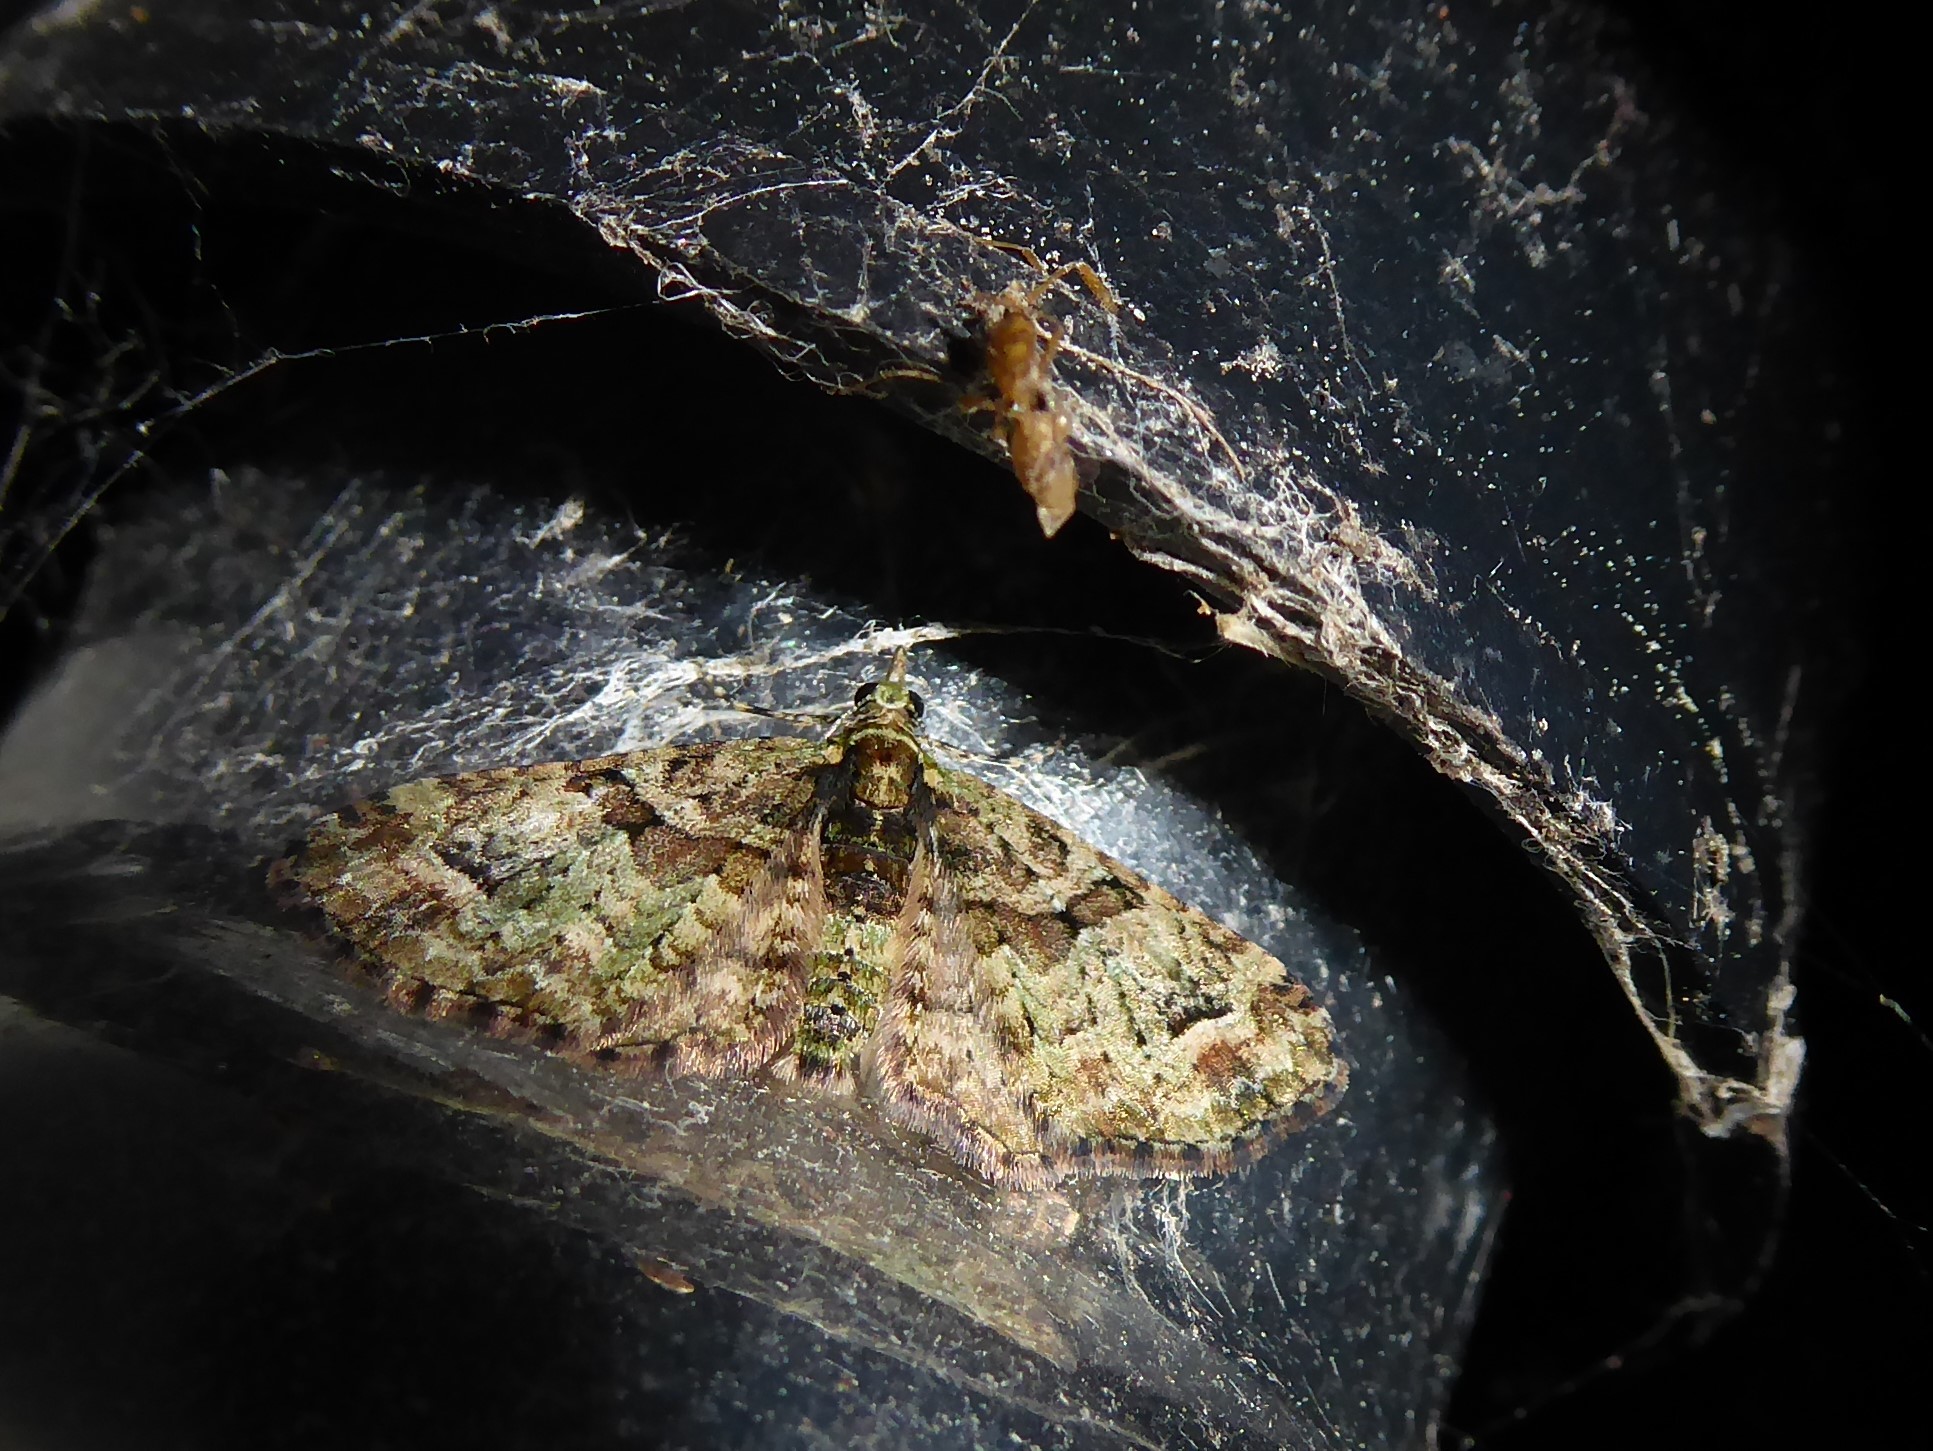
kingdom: Animalia
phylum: Arthropoda
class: Insecta
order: Lepidoptera
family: Geometridae
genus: Idaea
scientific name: Idaea mutanda
